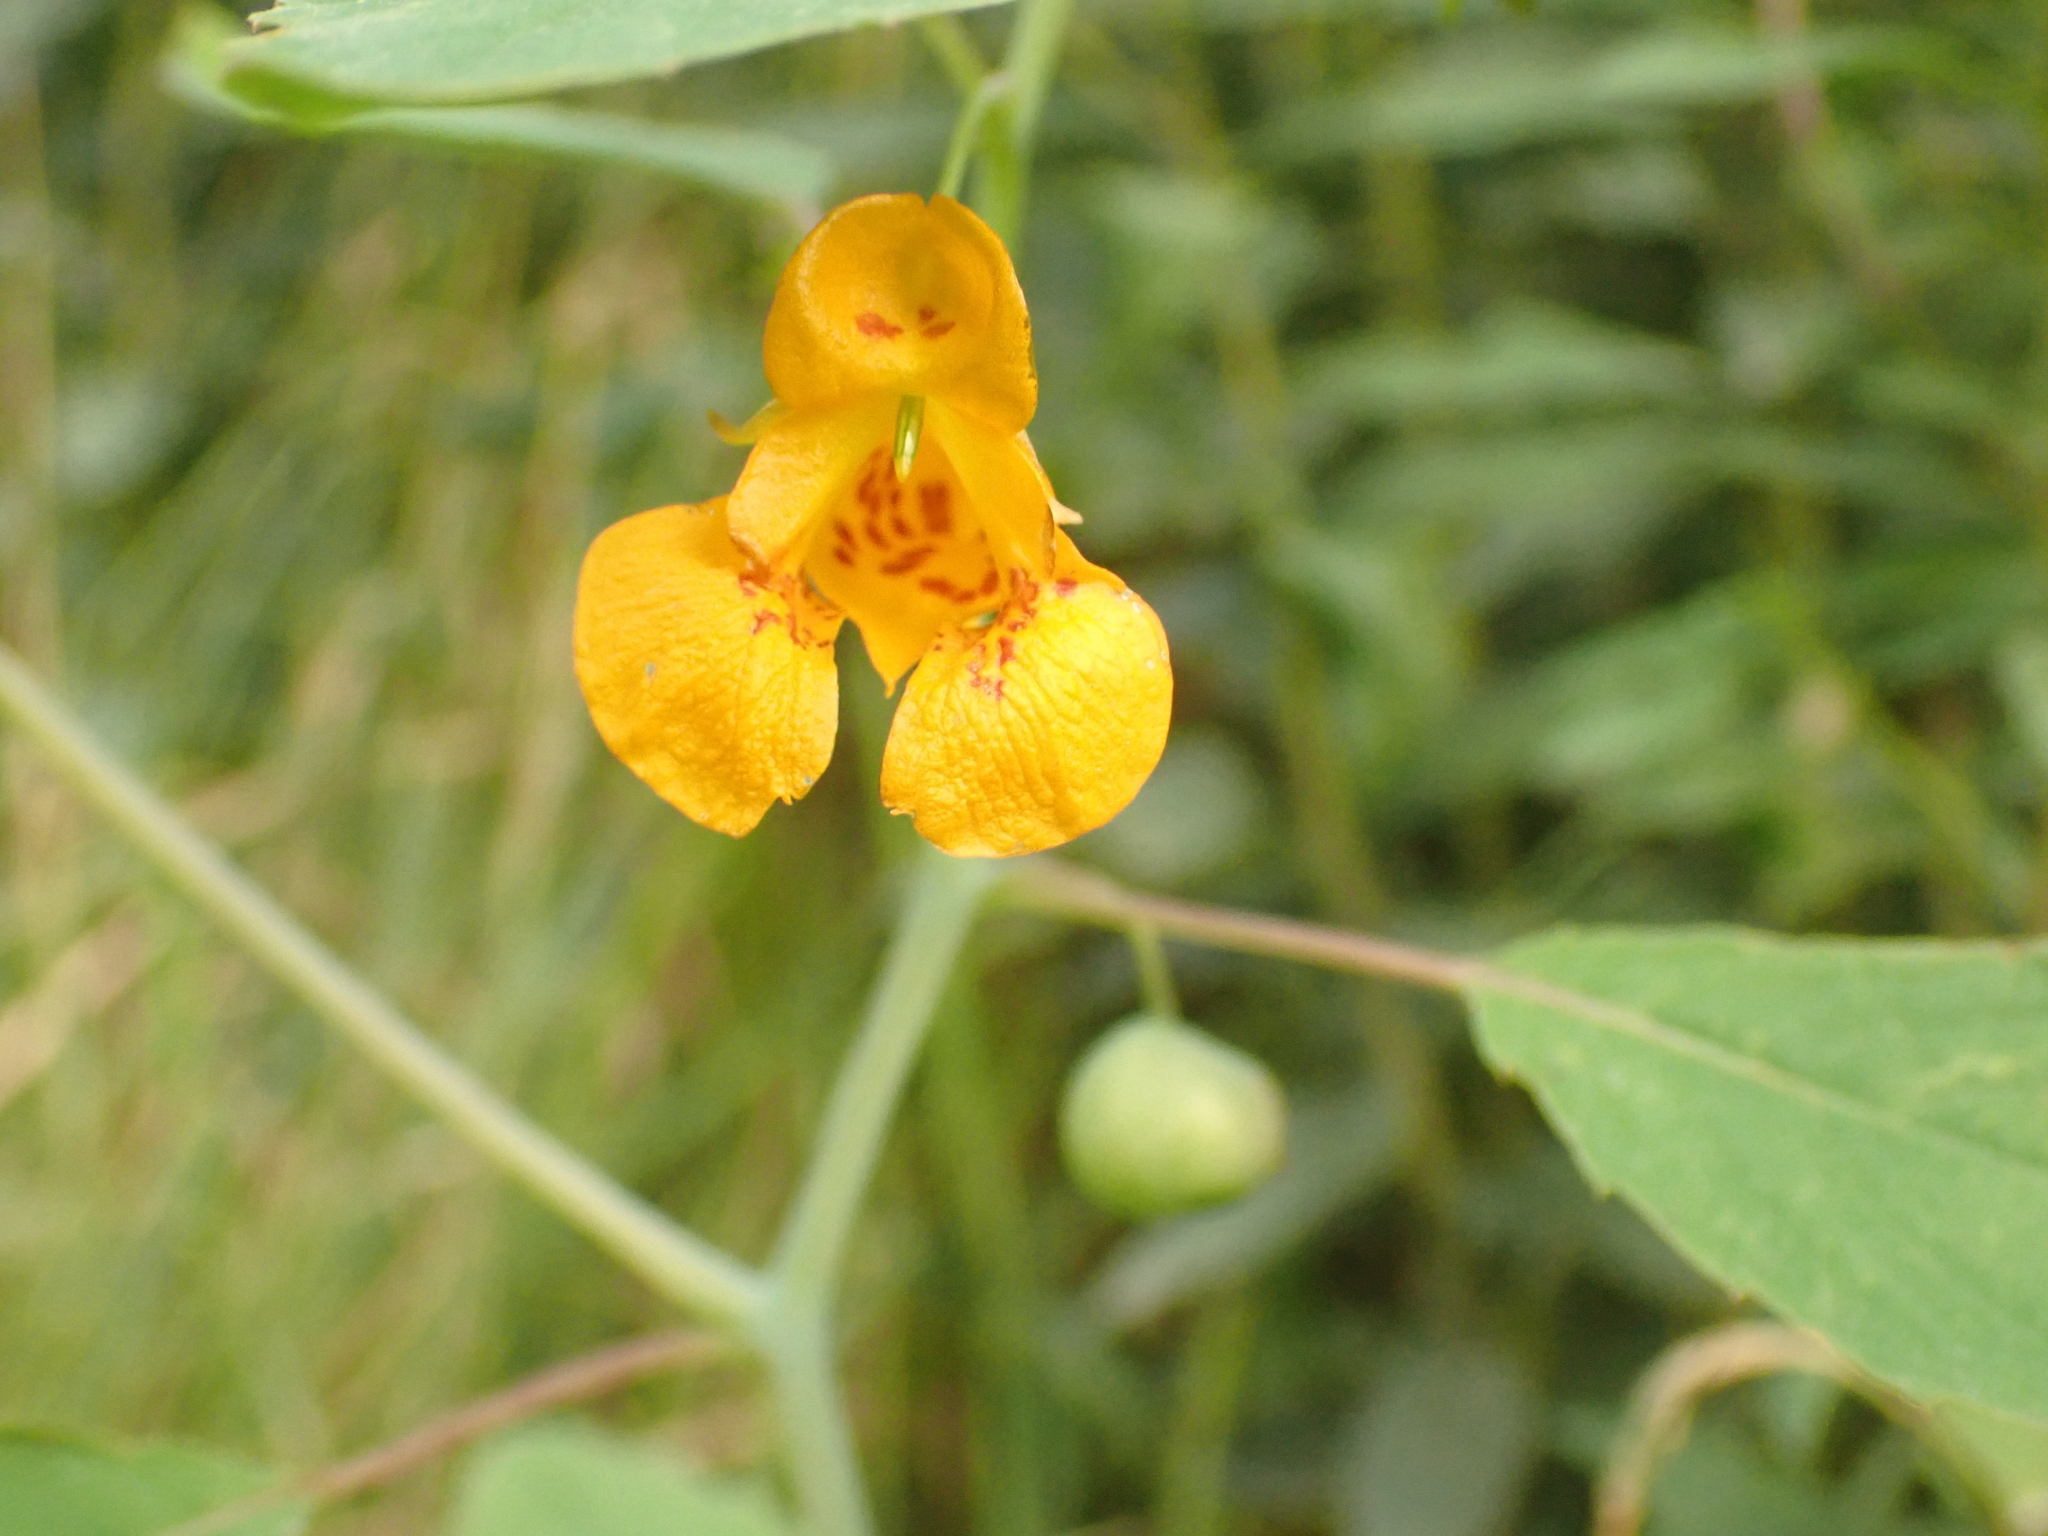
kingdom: Plantae
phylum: Tracheophyta
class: Magnoliopsida
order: Ericales
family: Balsaminaceae
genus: Impatiens
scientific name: Impatiens capensis
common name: Orange balsam
